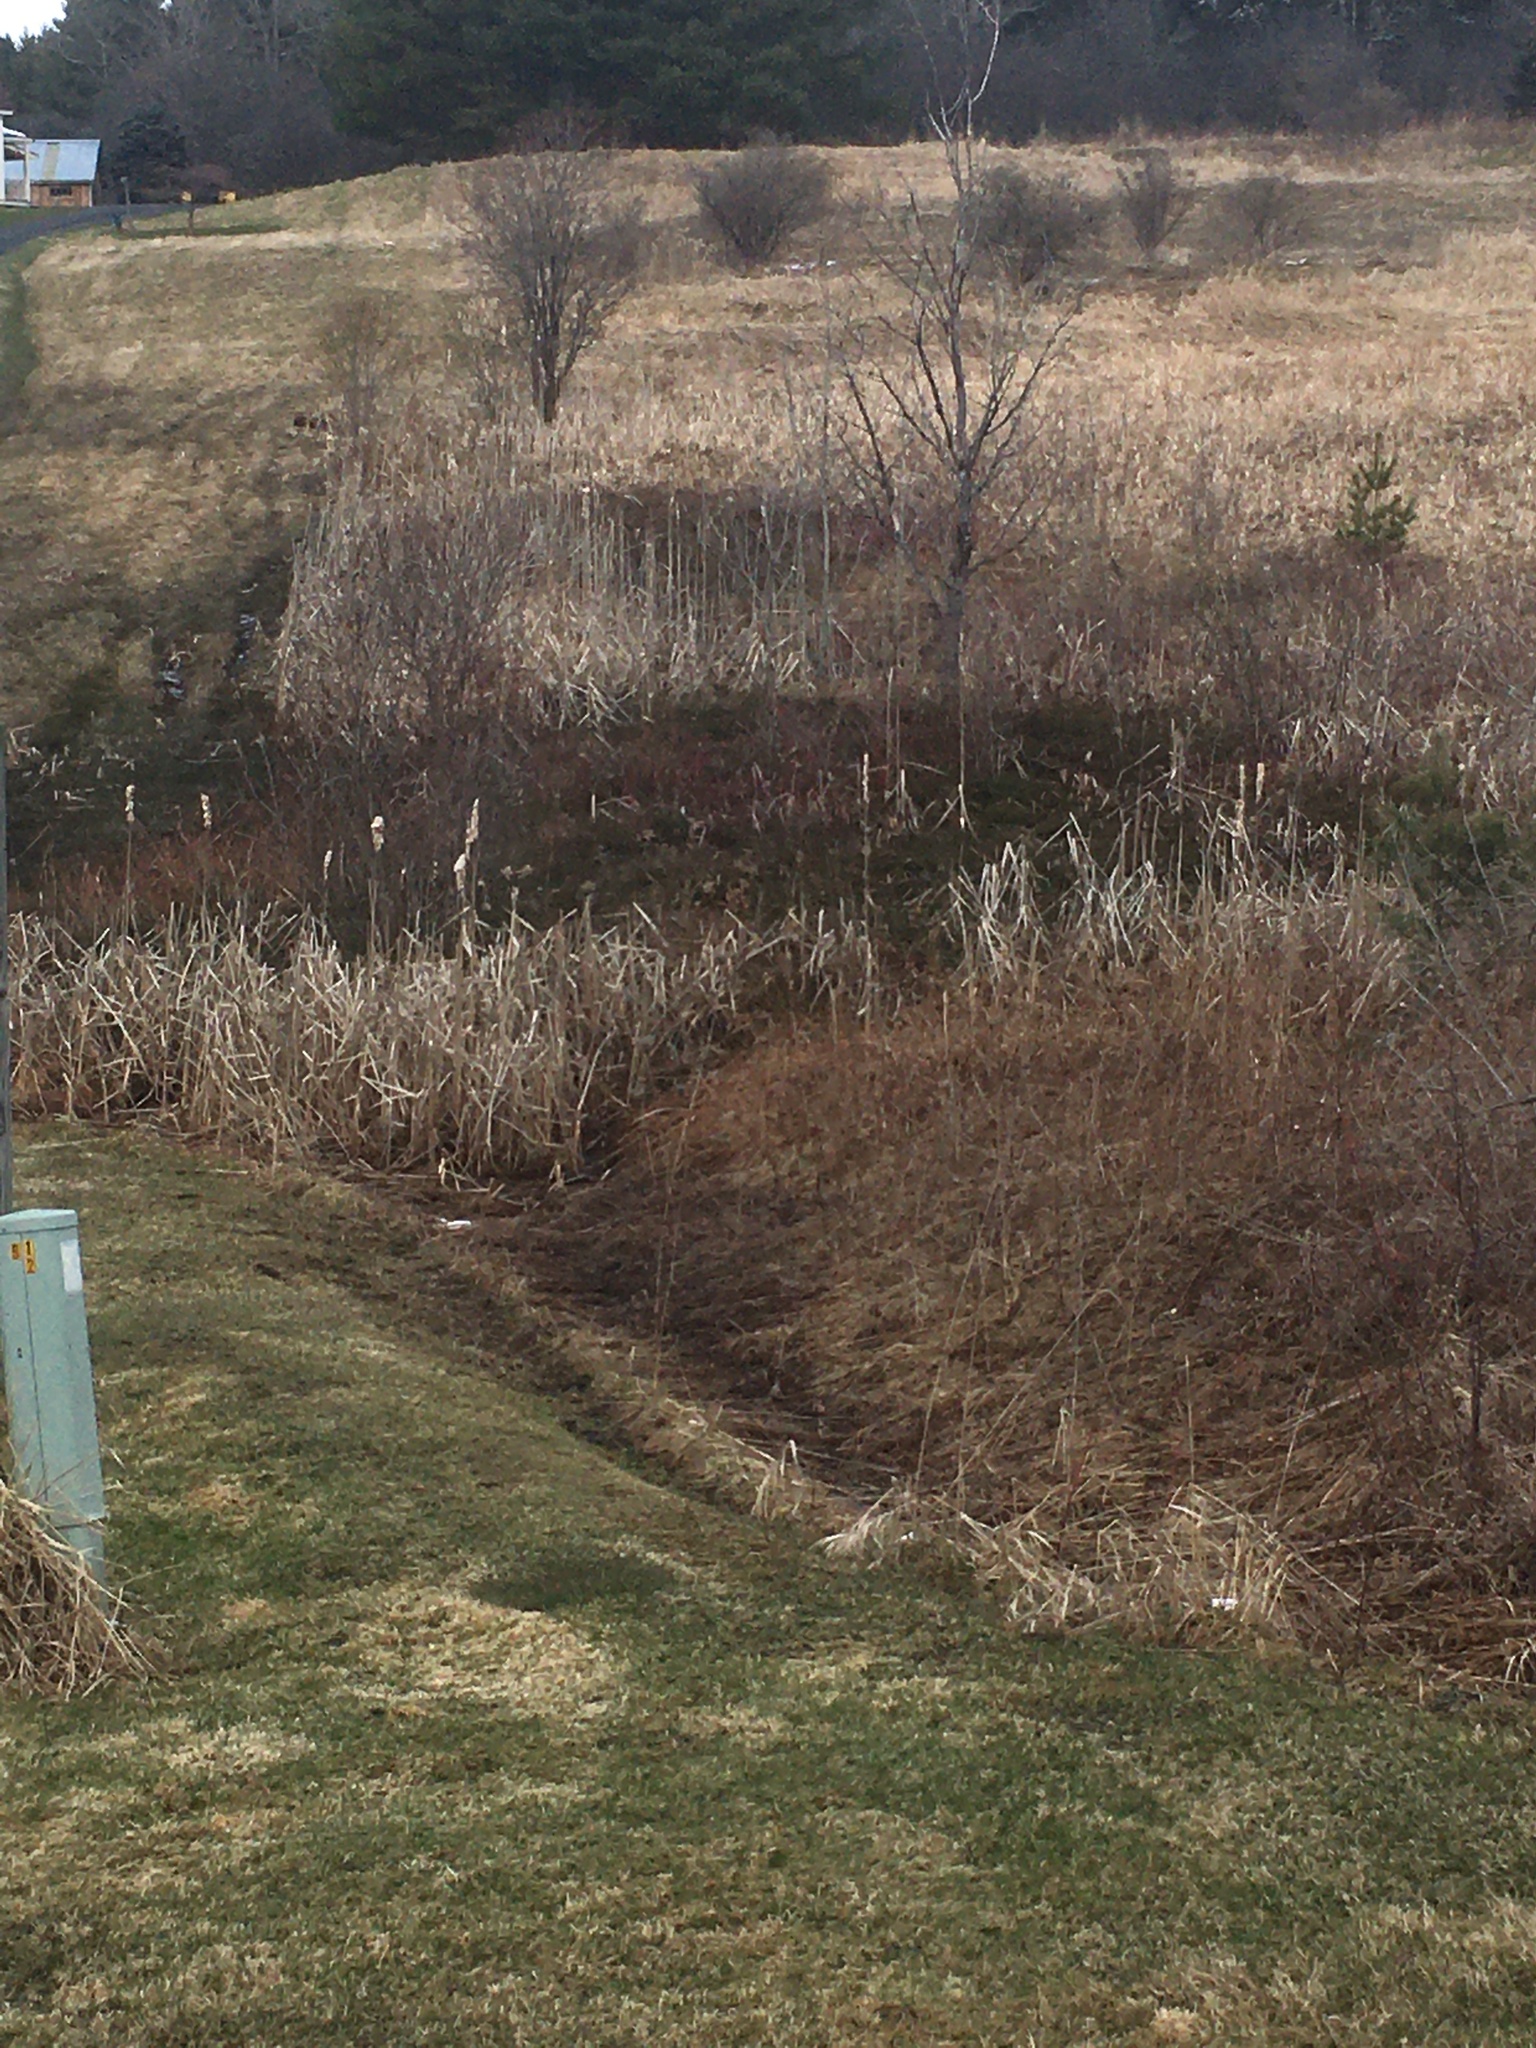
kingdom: Plantae
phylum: Tracheophyta
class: Liliopsida
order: Poales
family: Typhaceae
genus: Typha
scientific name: Typha
